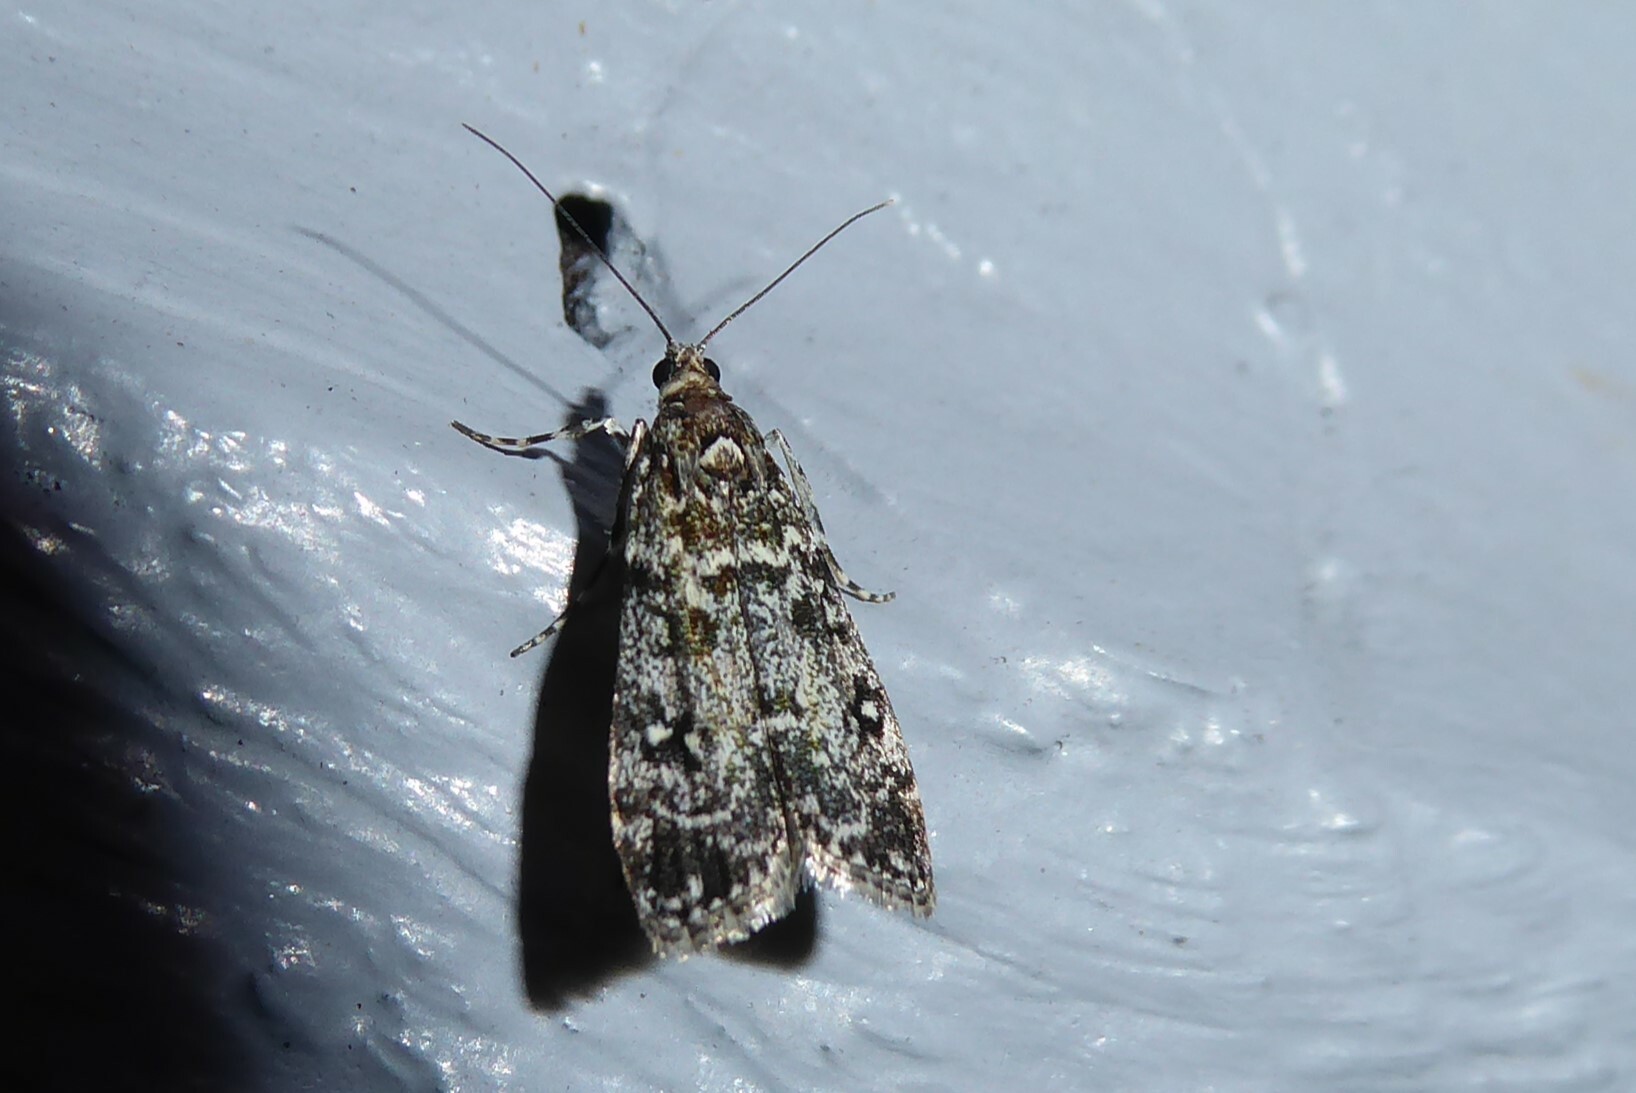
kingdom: Animalia
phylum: Arthropoda
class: Insecta
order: Lepidoptera
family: Crambidae
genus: Eudonia
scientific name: Eudonia philerga
